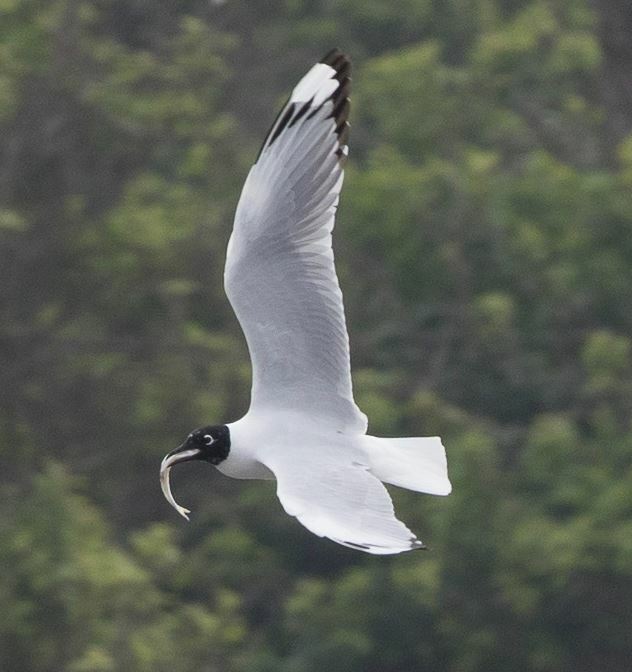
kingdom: Animalia
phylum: Chordata
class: Aves
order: Charadriiformes
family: Laridae
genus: Chroicocephalus
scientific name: Chroicocephalus serranus
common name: Andean gull
